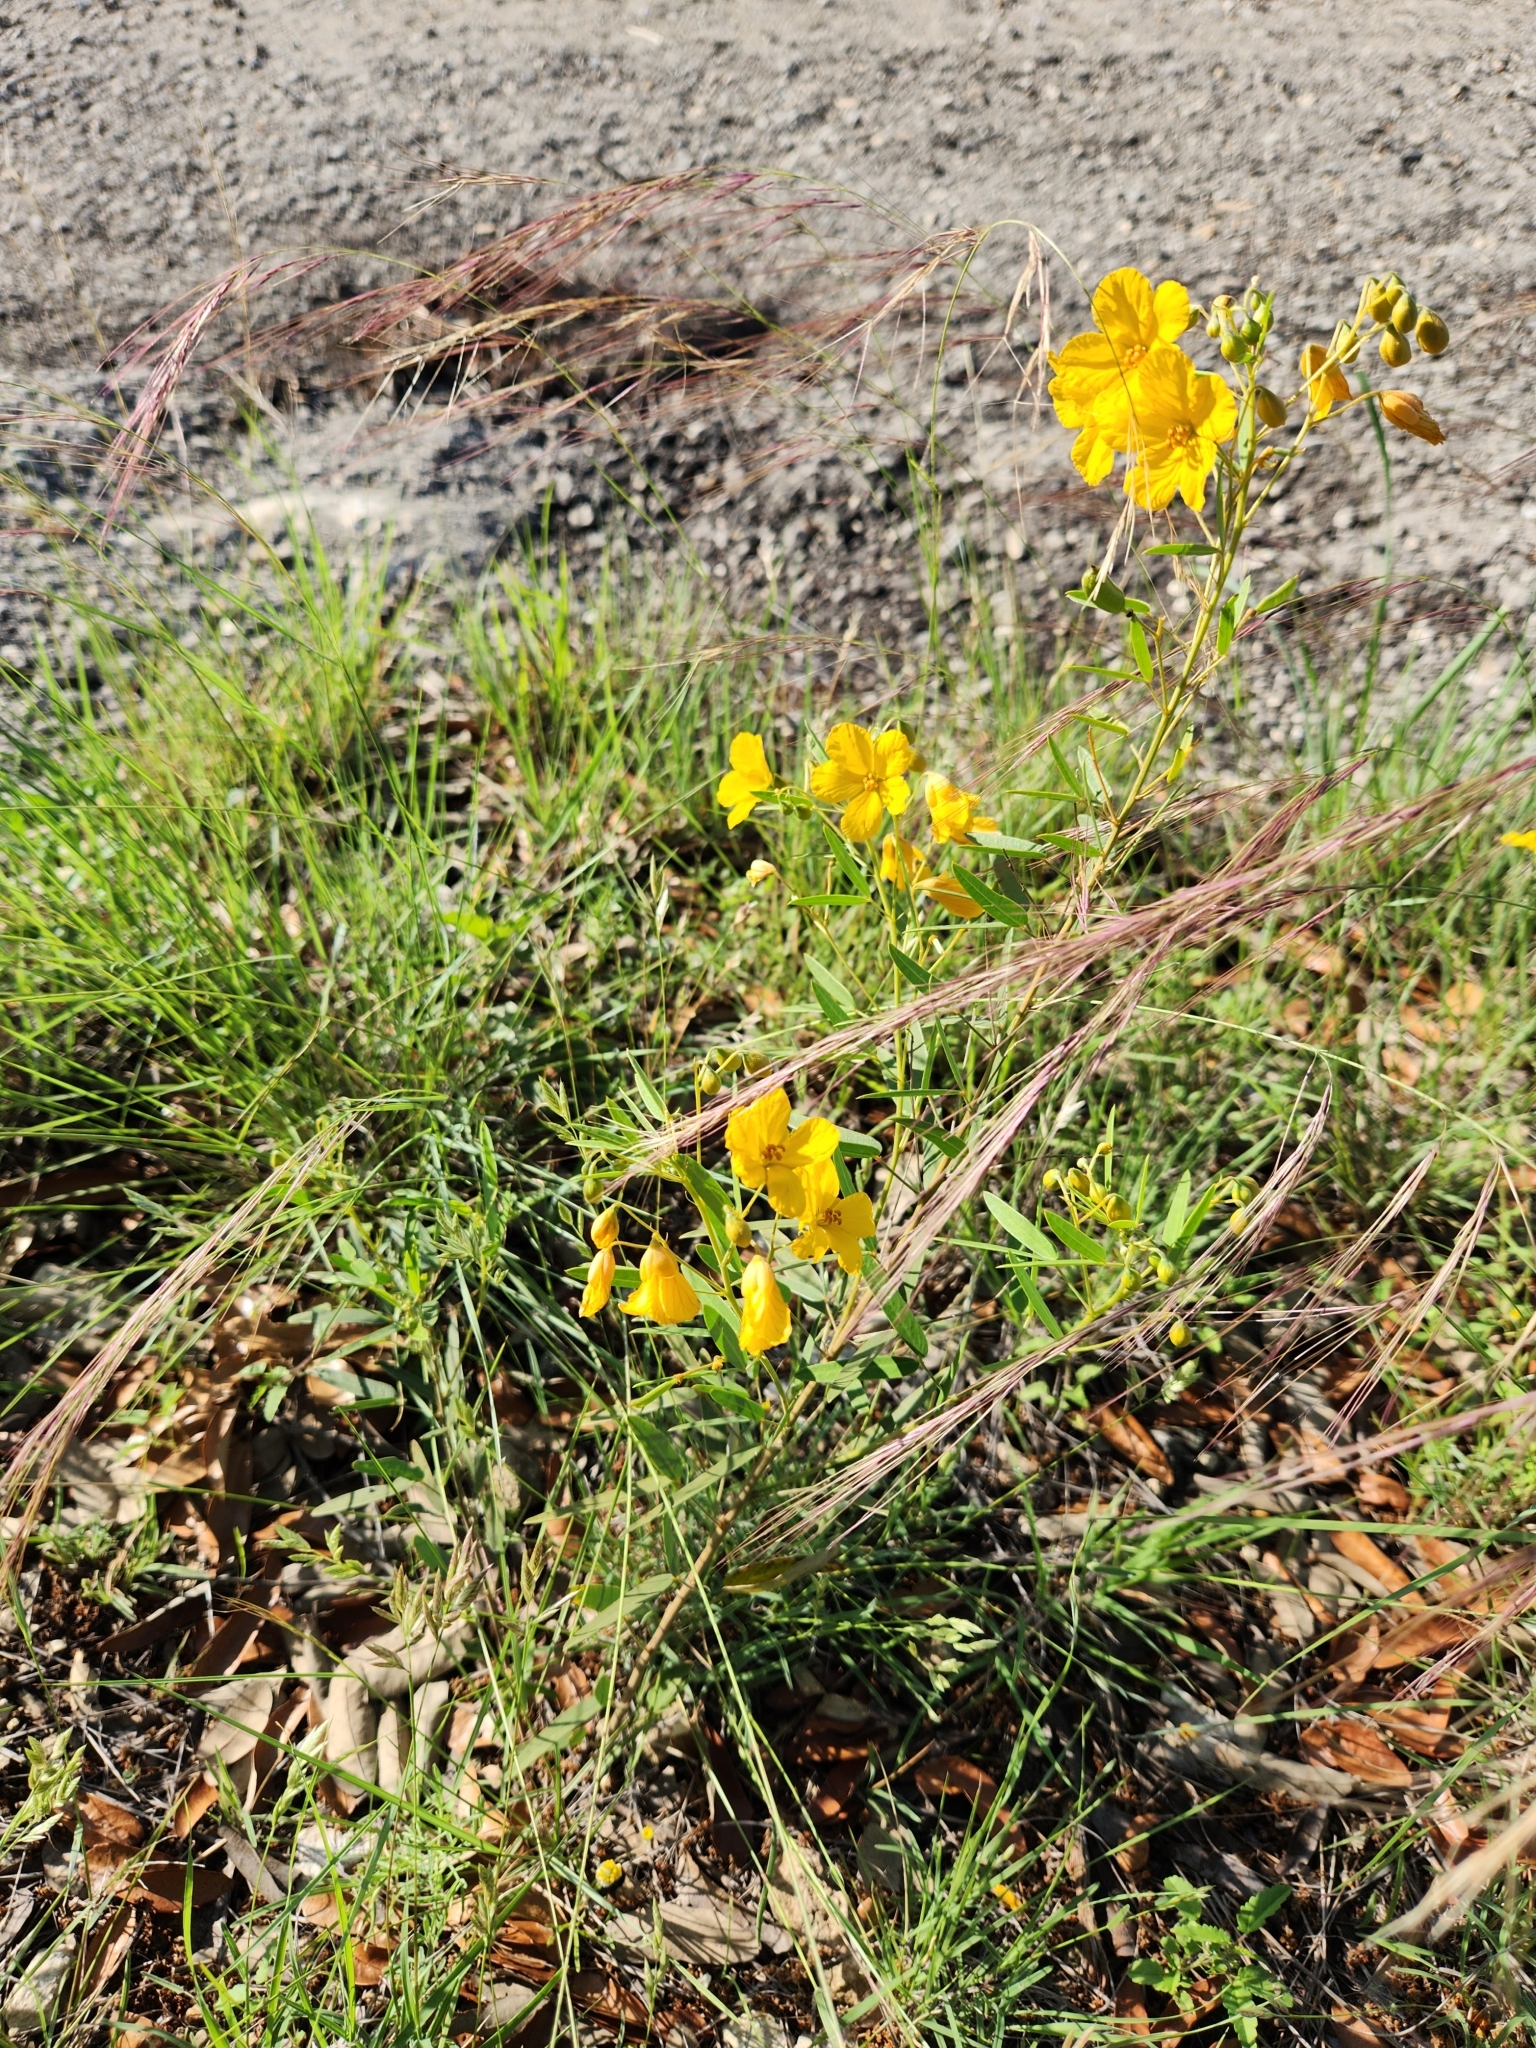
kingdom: Plantae
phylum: Tracheophyta
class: Magnoliopsida
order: Fabales
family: Fabaceae
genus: Senna
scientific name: Senna roemeriana
